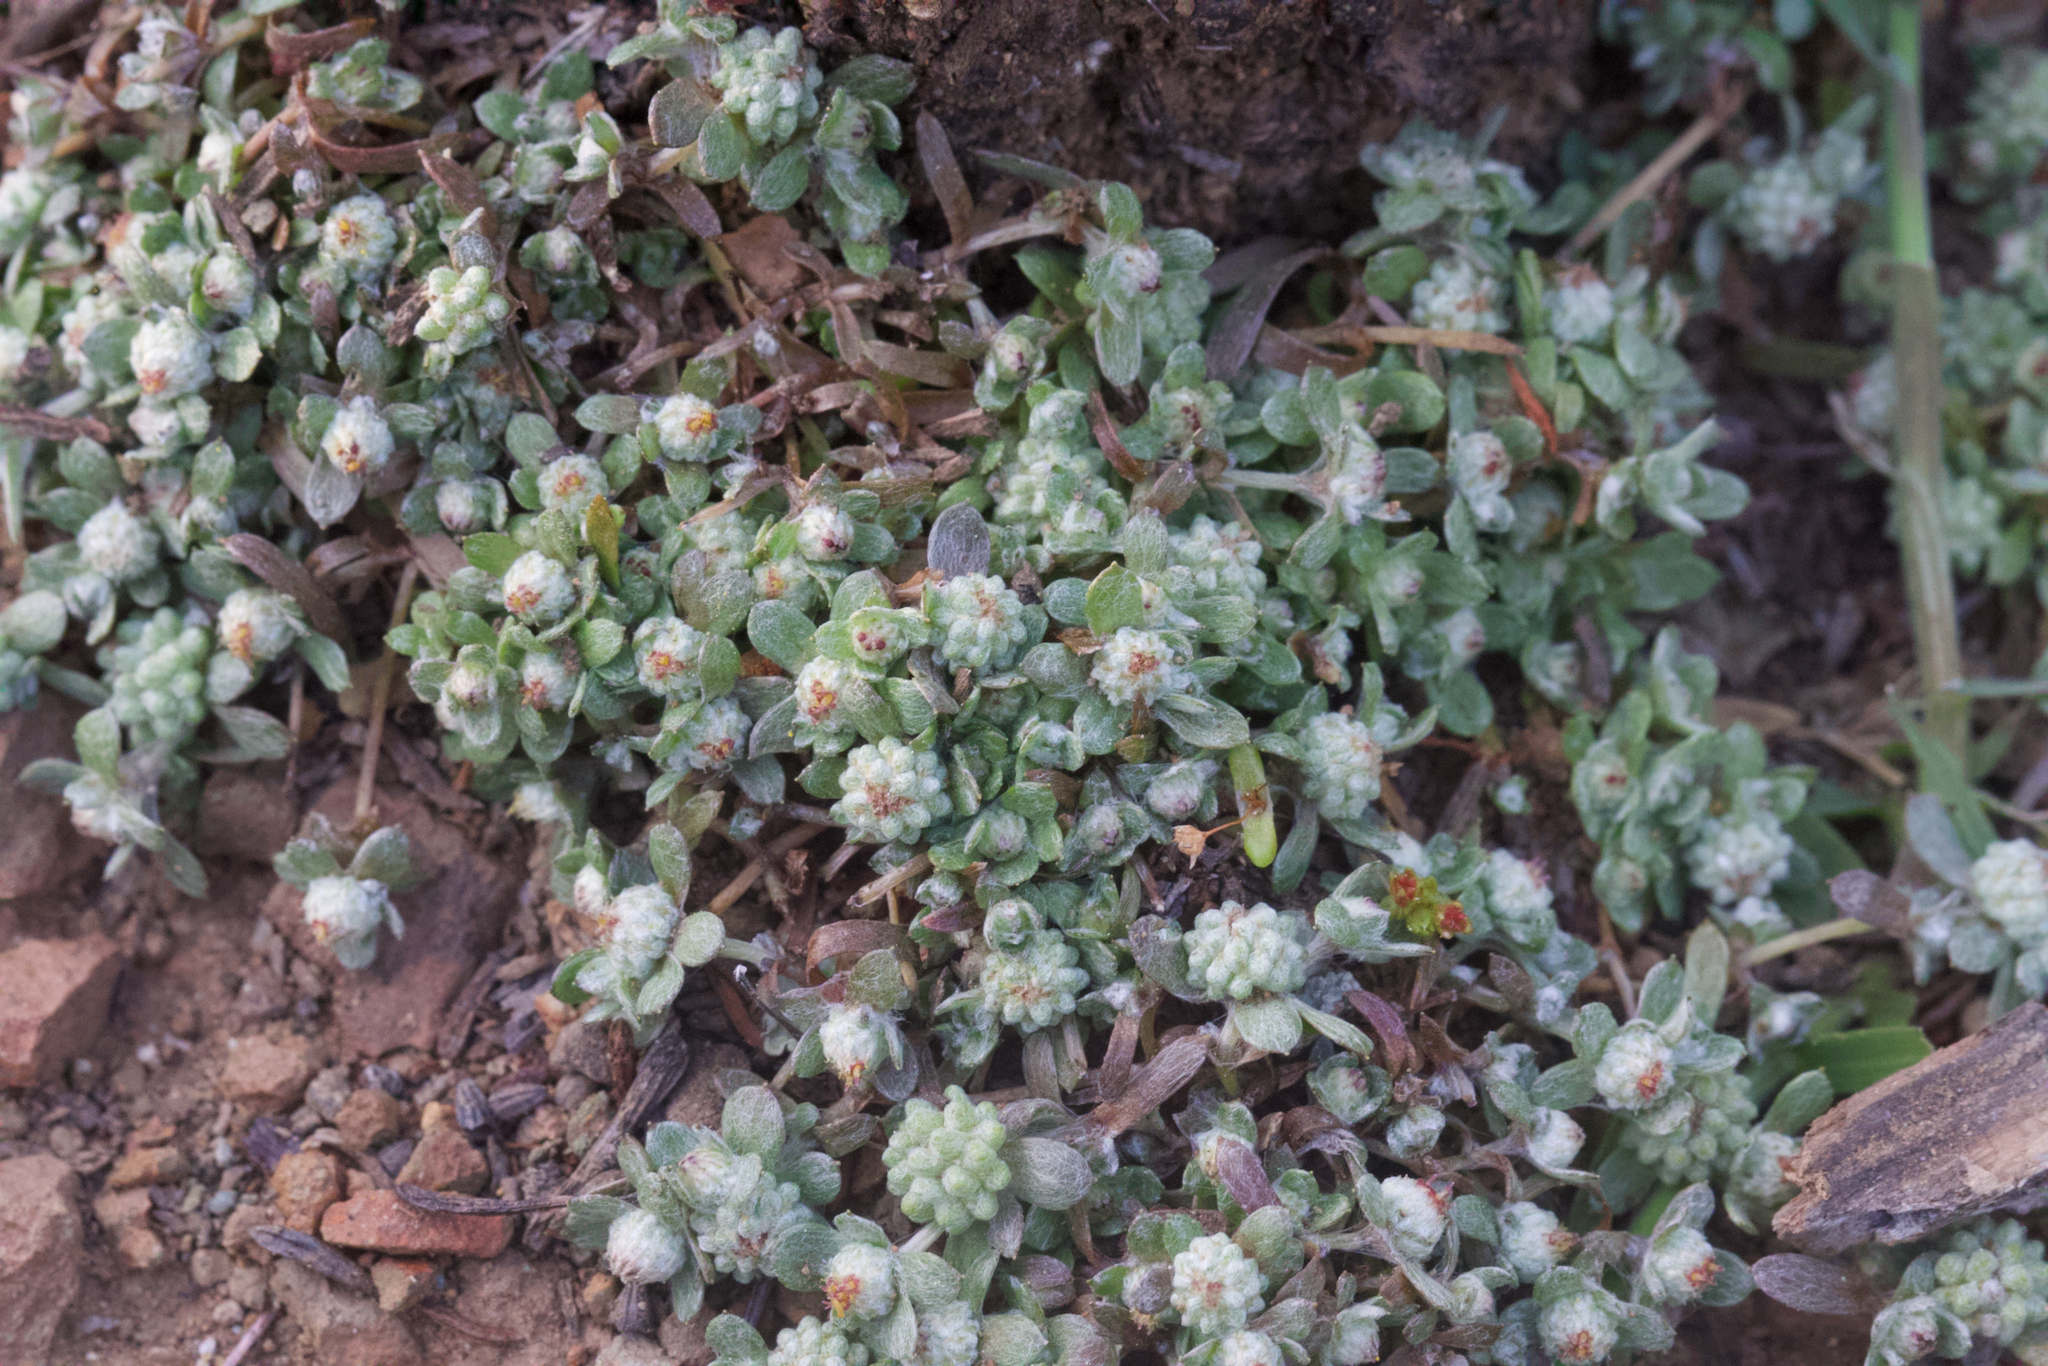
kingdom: Plantae
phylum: Tracheophyta
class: Magnoliopsida
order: Asterales
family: Asteraceae
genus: Psilocarphus
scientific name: Psilocarphus tenellus
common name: Slender woolly-marbles
